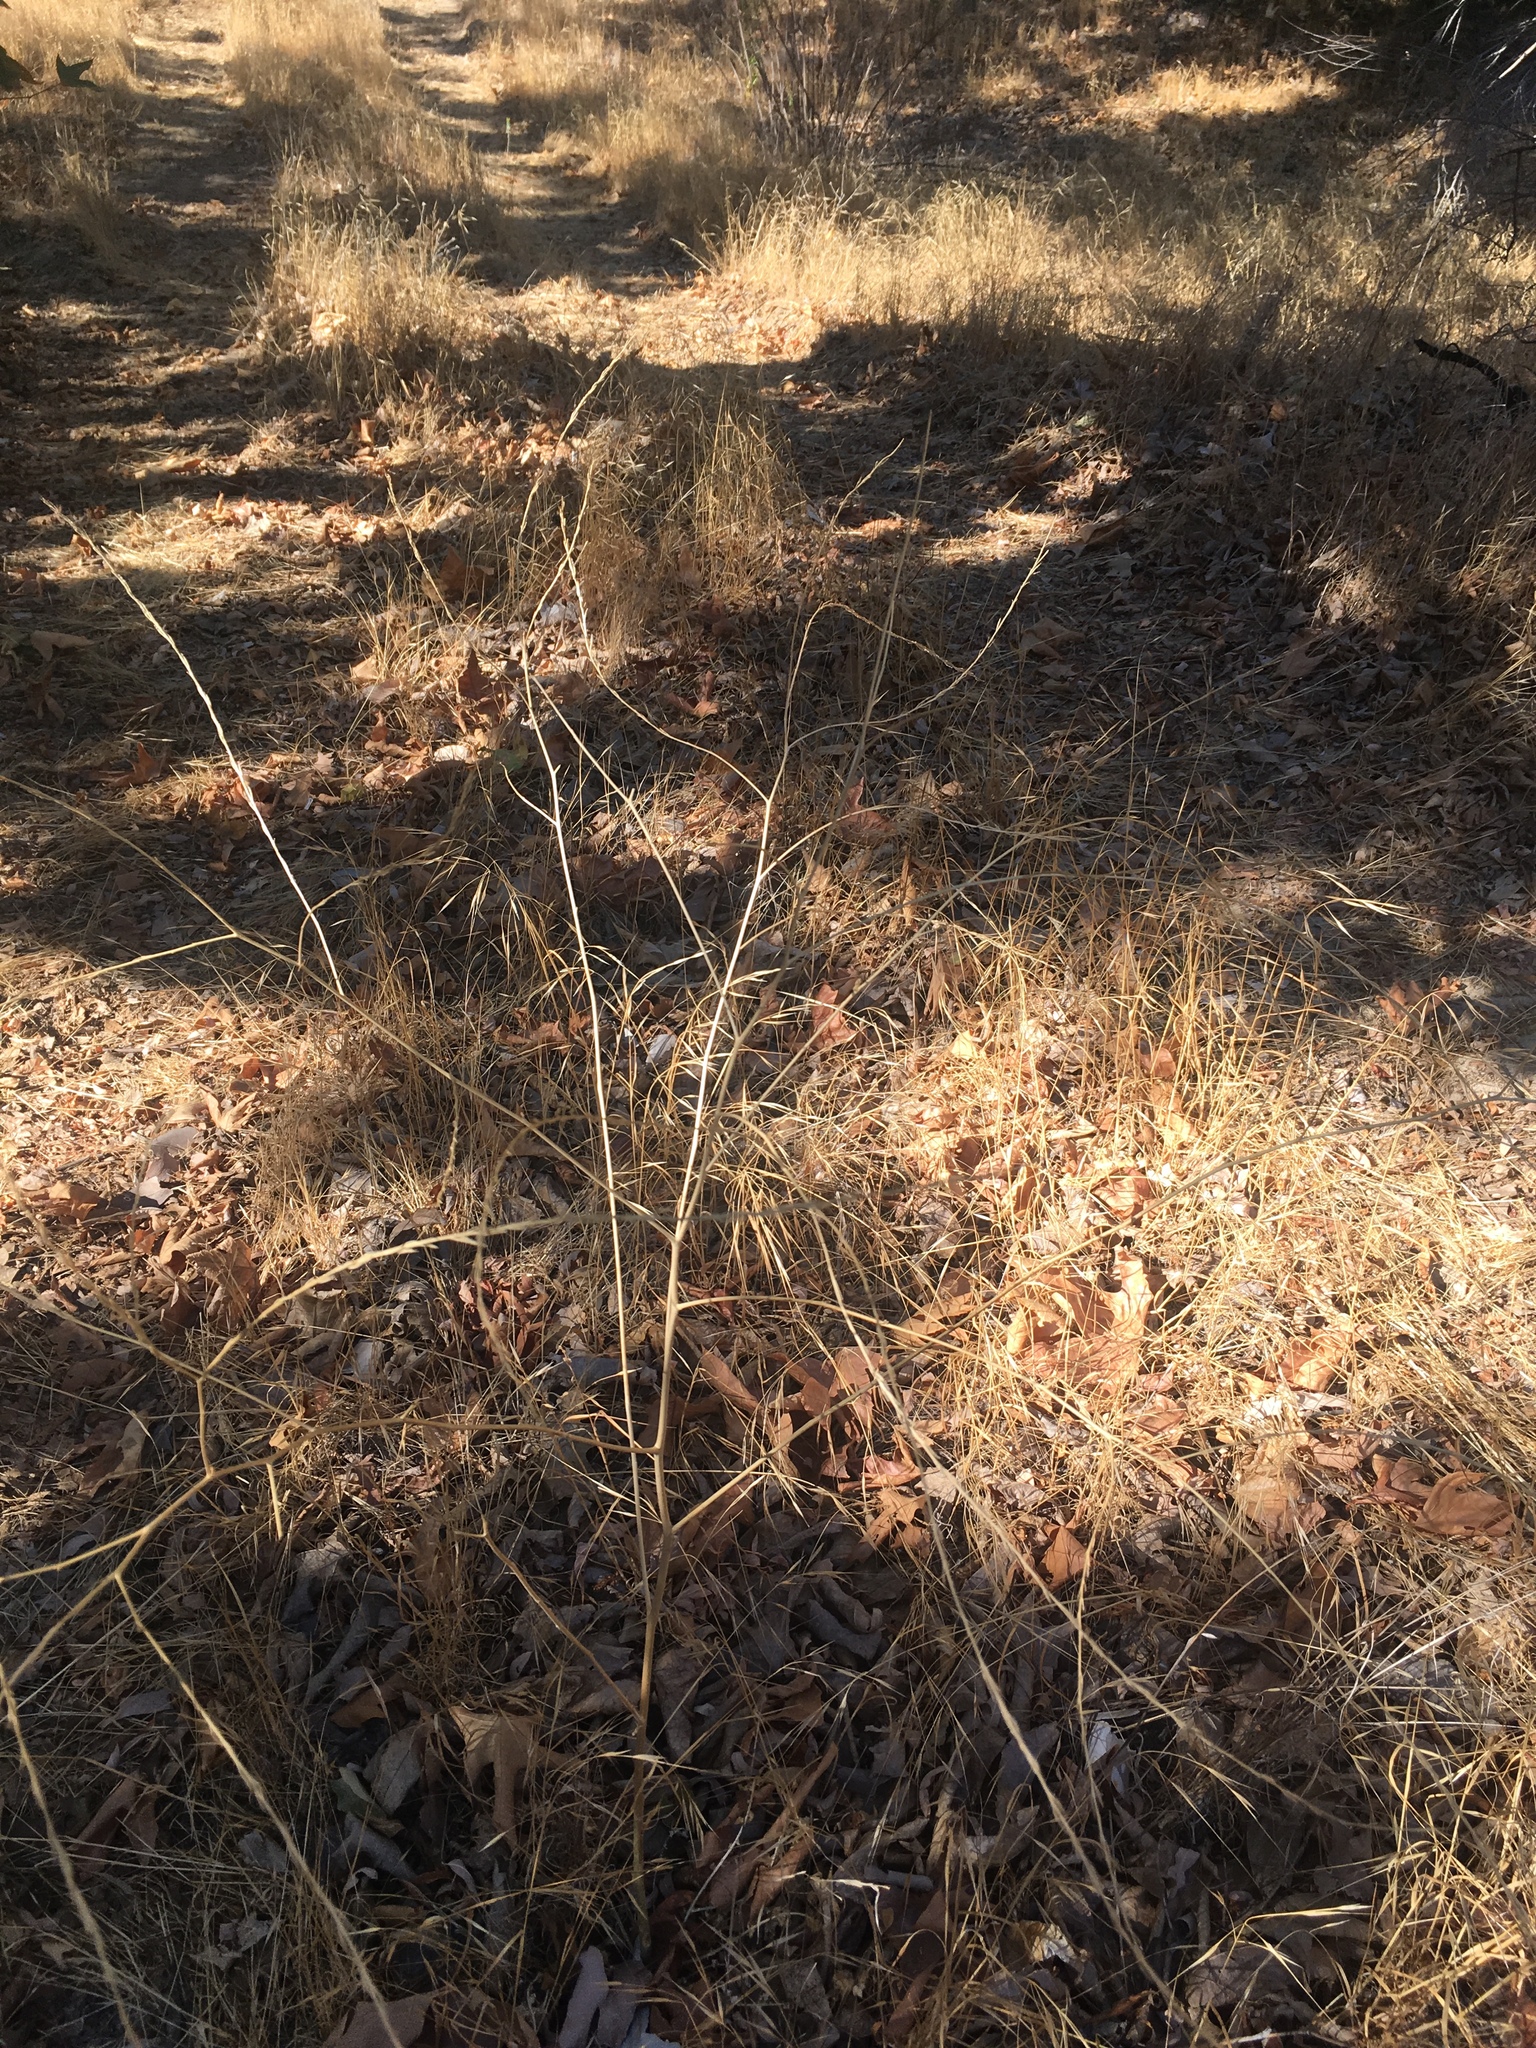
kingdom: Plantae
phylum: Tracheophyta
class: Magnoliopsida
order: Brassicales
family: Brassicaceae
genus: Hirschfeldia
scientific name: Hirschfeldia incana
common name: Hoary mustard
